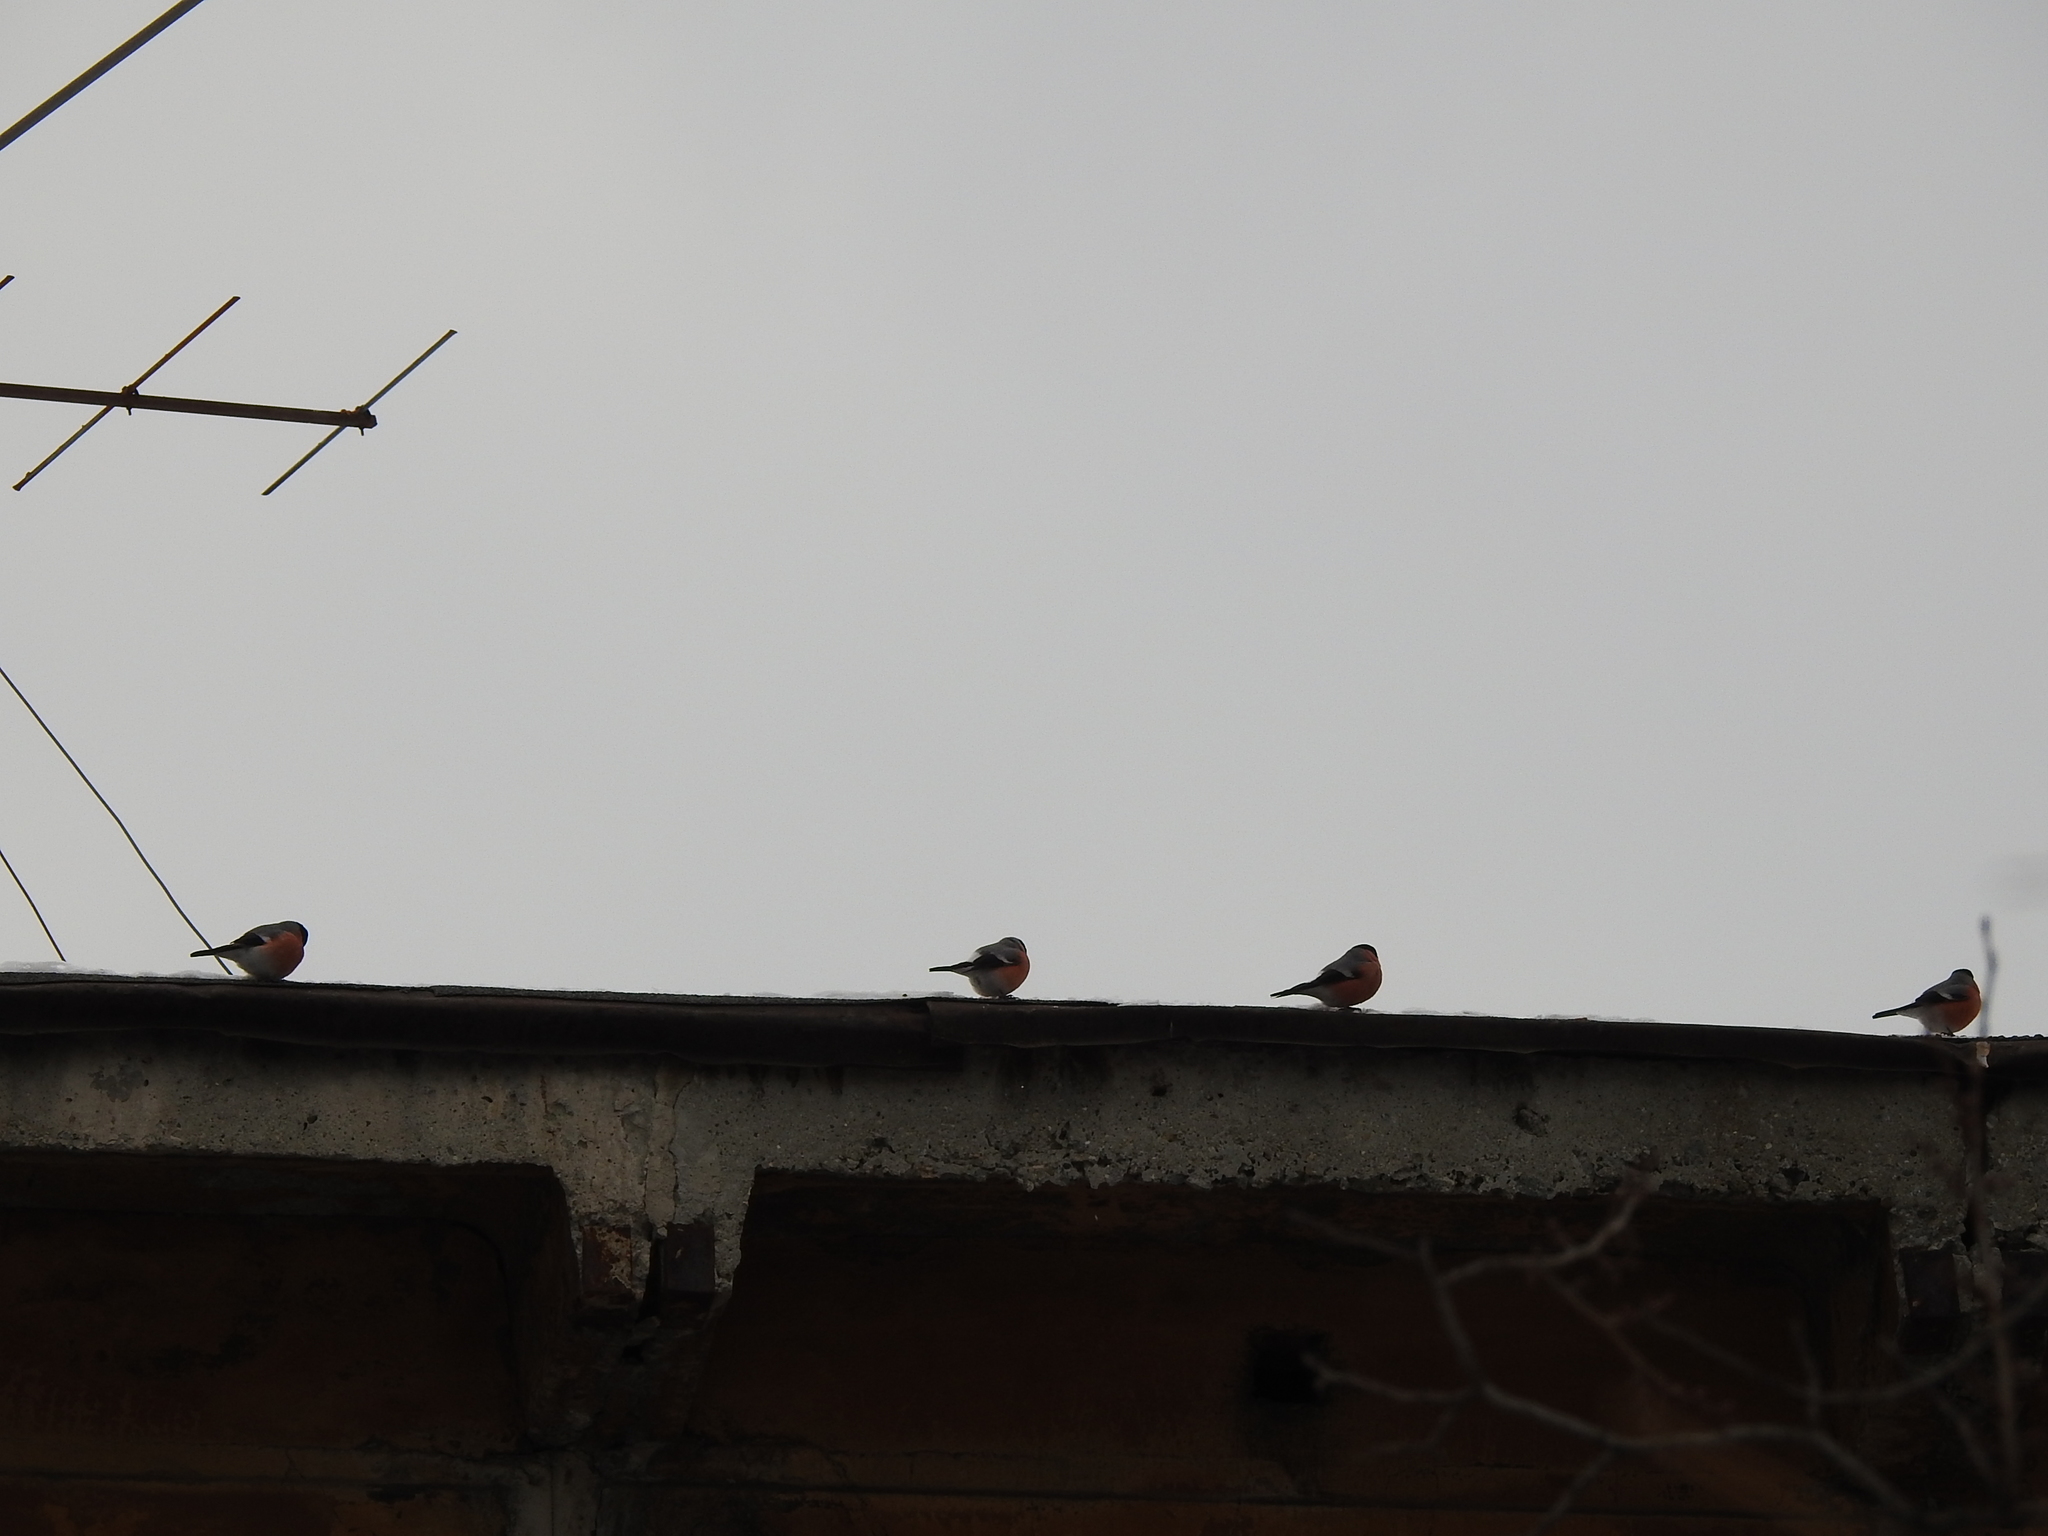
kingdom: Animalia
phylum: Chordata
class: Aves
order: Passeriformes
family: Fringillidae
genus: Pyrrhula
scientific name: Pyrrhula pyrrhula
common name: Eurasian bullfinch
